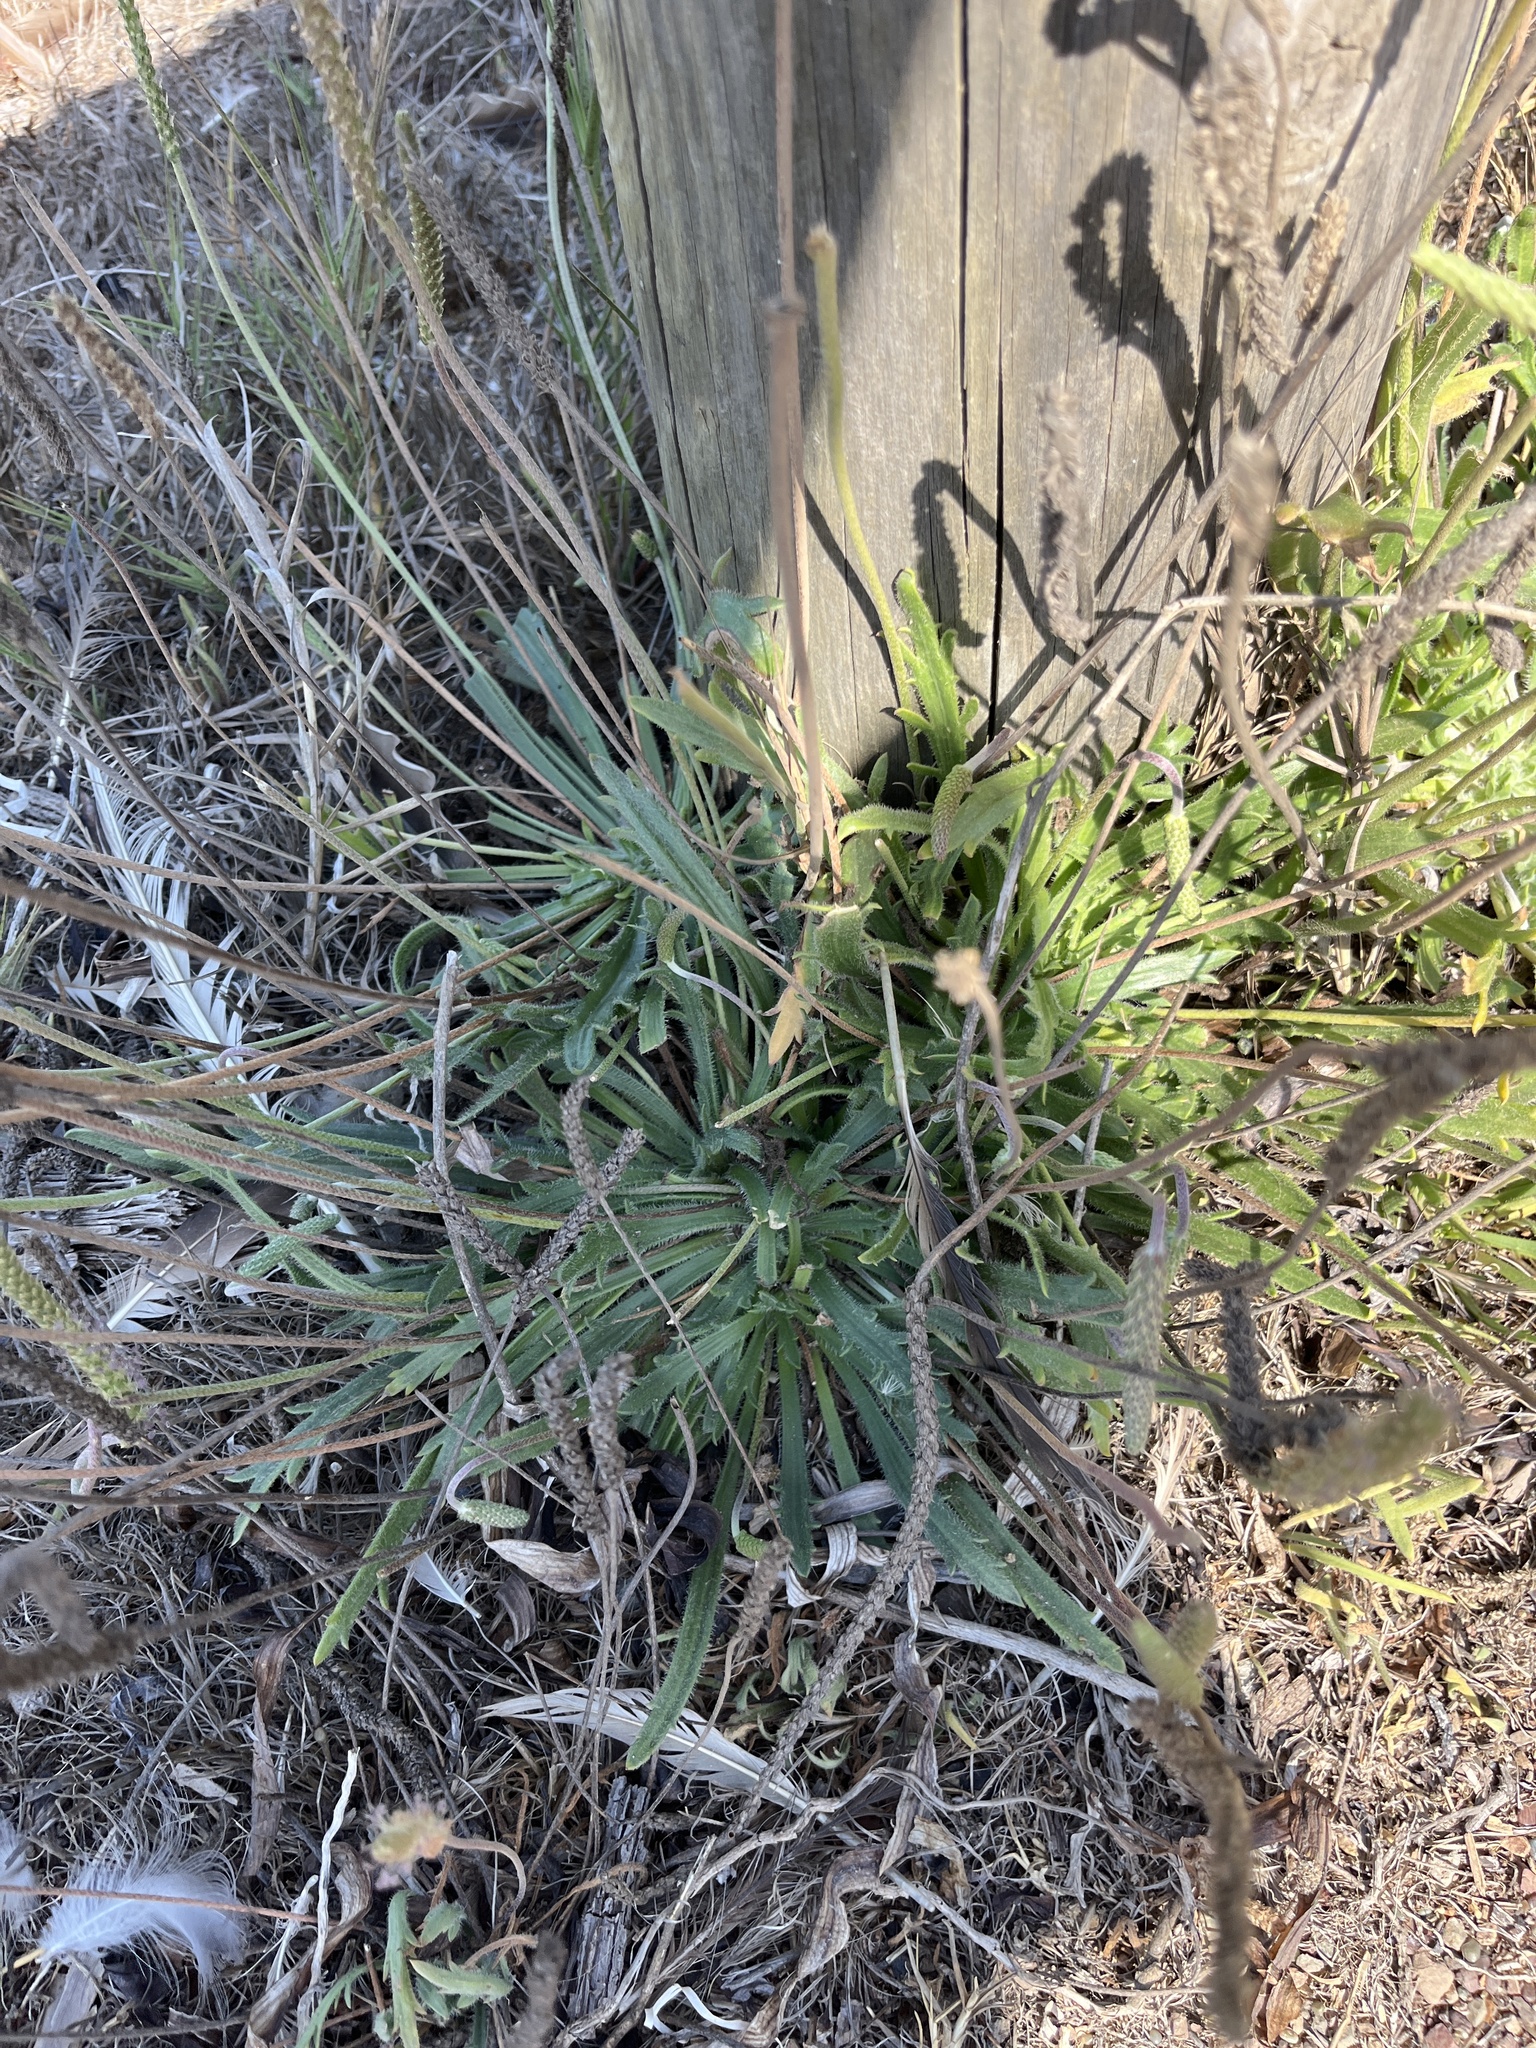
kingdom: Plantae
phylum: Tracheophyta
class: Magnoliopsida
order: Lamiales
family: Plantaginaceae
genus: Plantago
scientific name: Plantago coronopus
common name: Buck's-horn plantain
